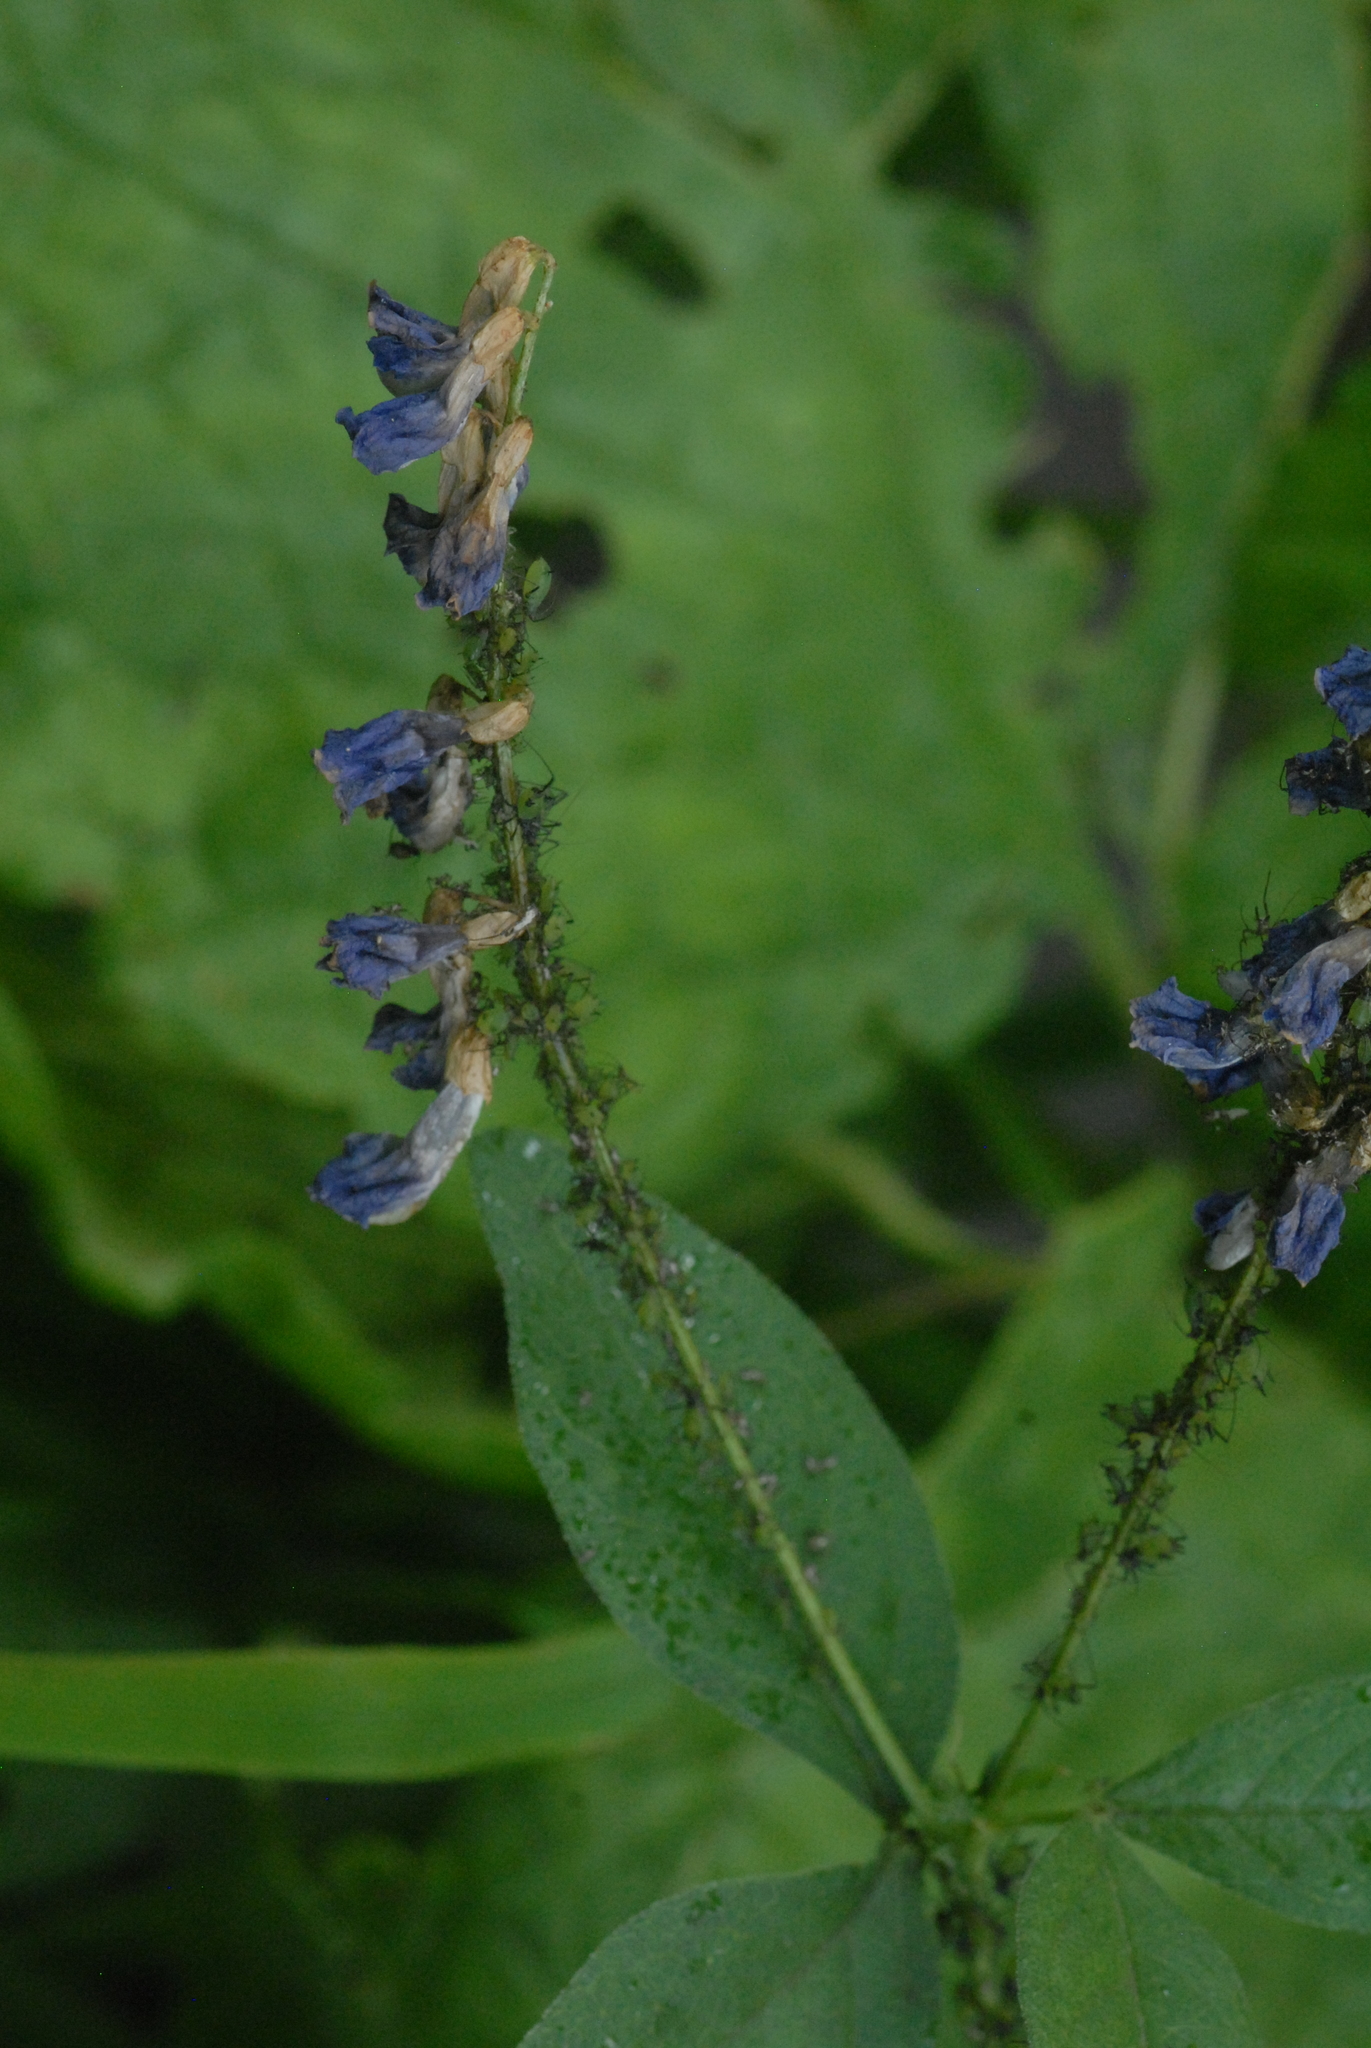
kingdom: Plantae
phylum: Tracheophyta
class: Magnoliopsida
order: Fabales
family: Fabaceae
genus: Vicia
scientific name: Vicia unijuga
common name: Two-leaf vetch
